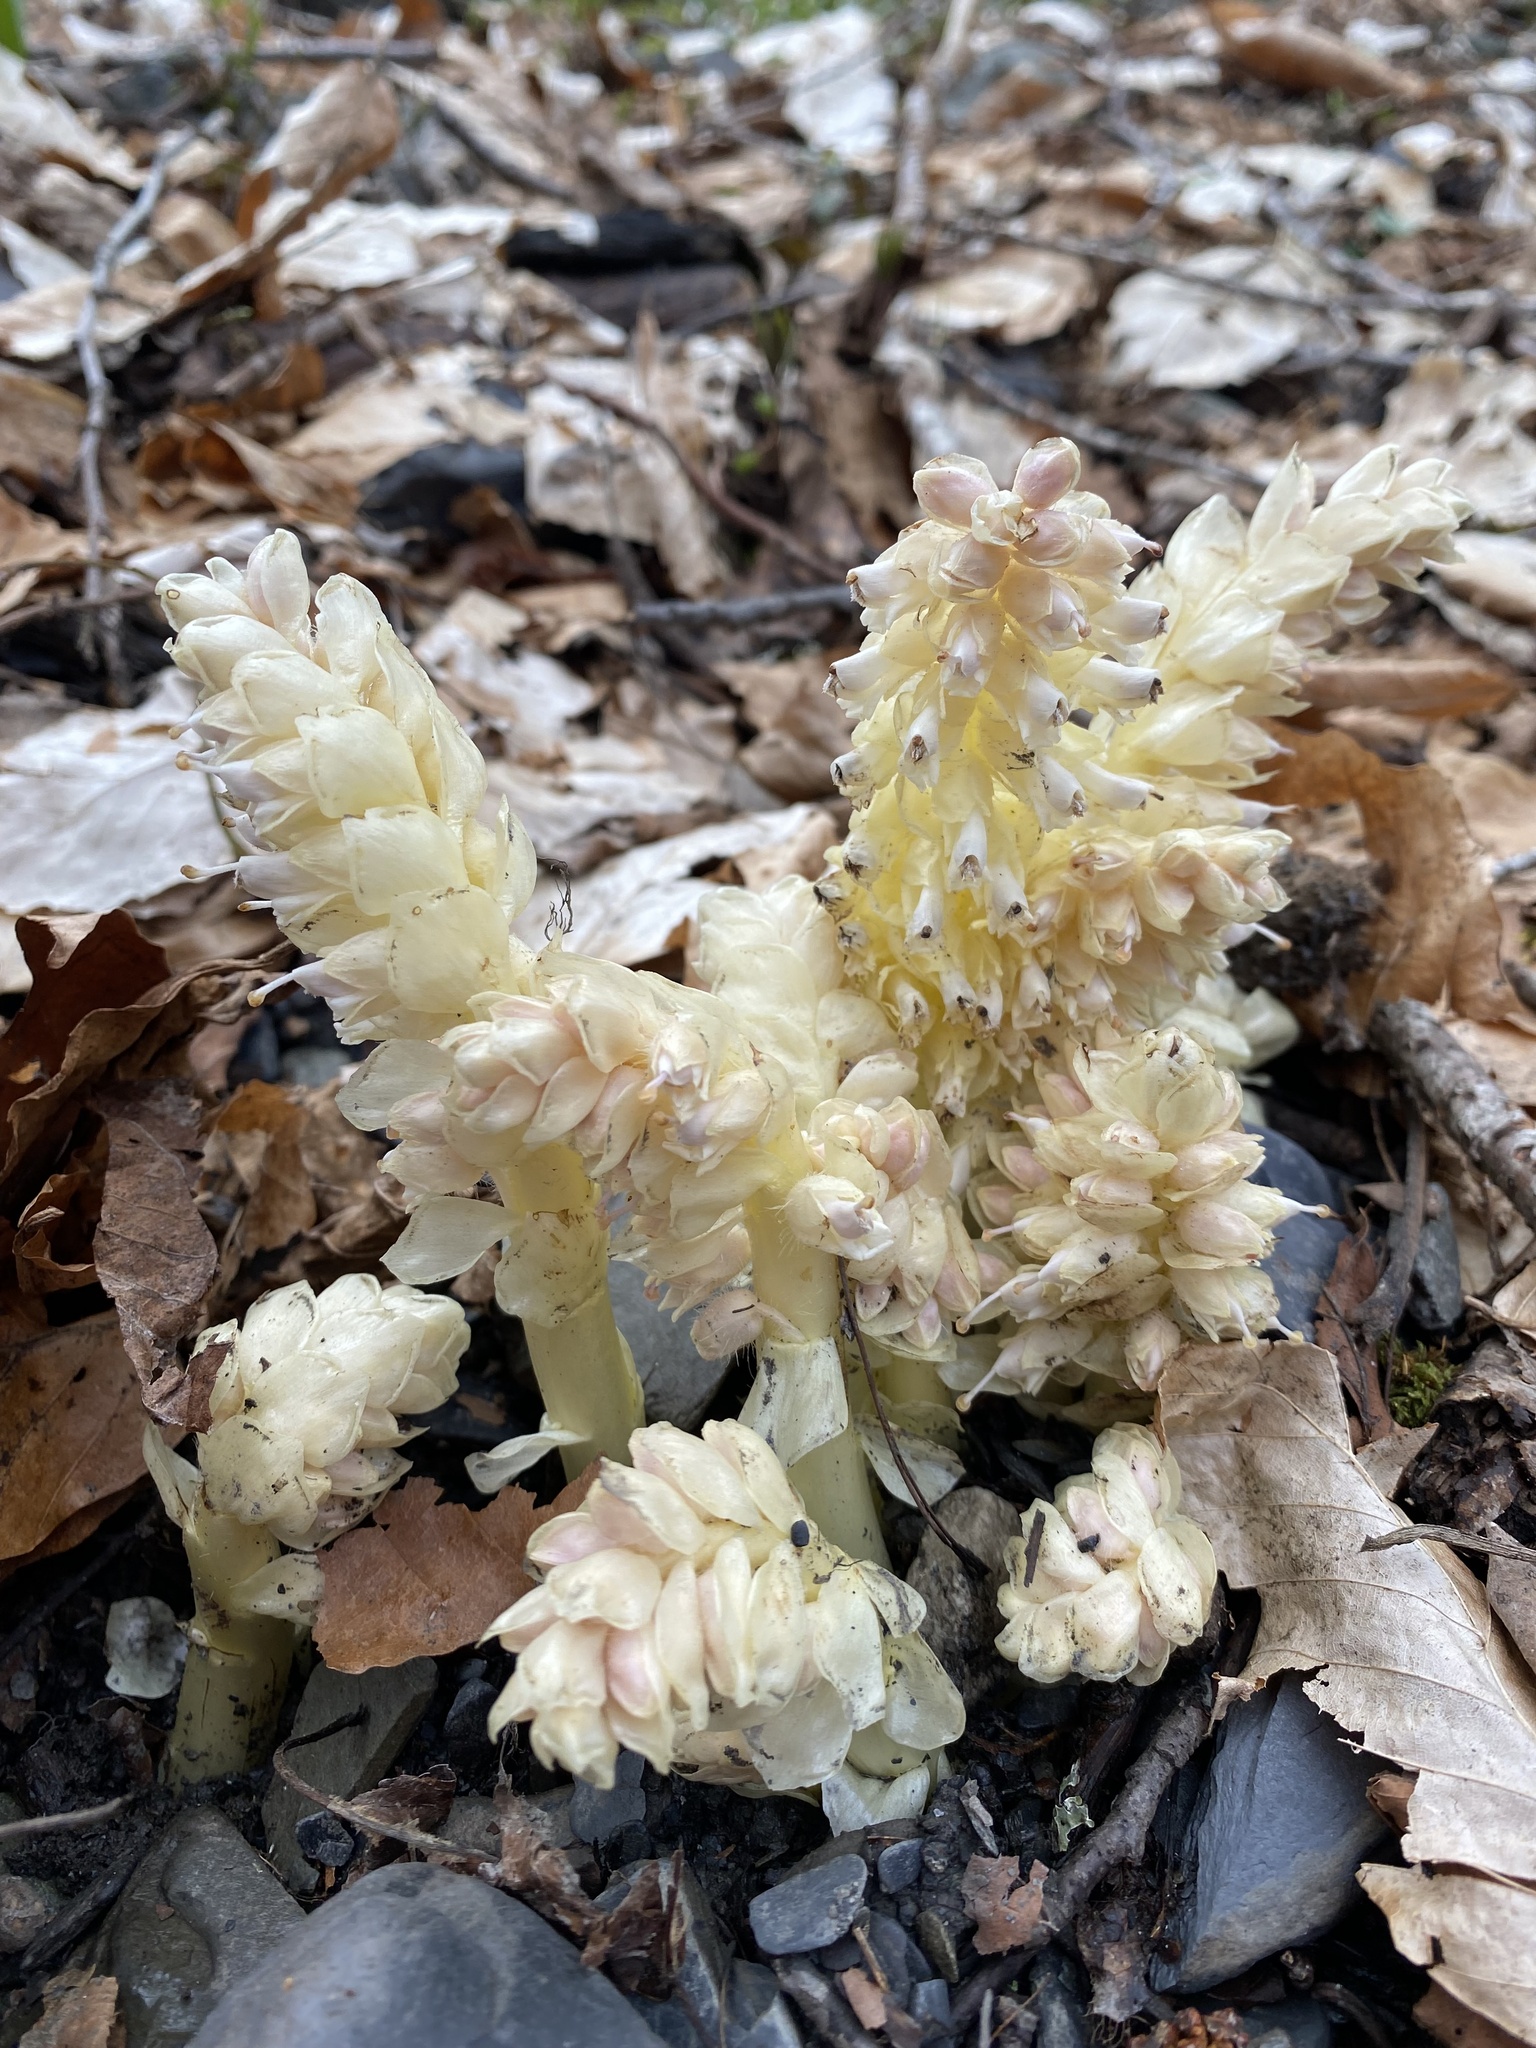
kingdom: Plantae
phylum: Tracheophyta
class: Magnoliopsida
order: Lamiales
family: Orobanchaceae
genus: Lathraea
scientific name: Lathraea squamaria
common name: Toothwort
